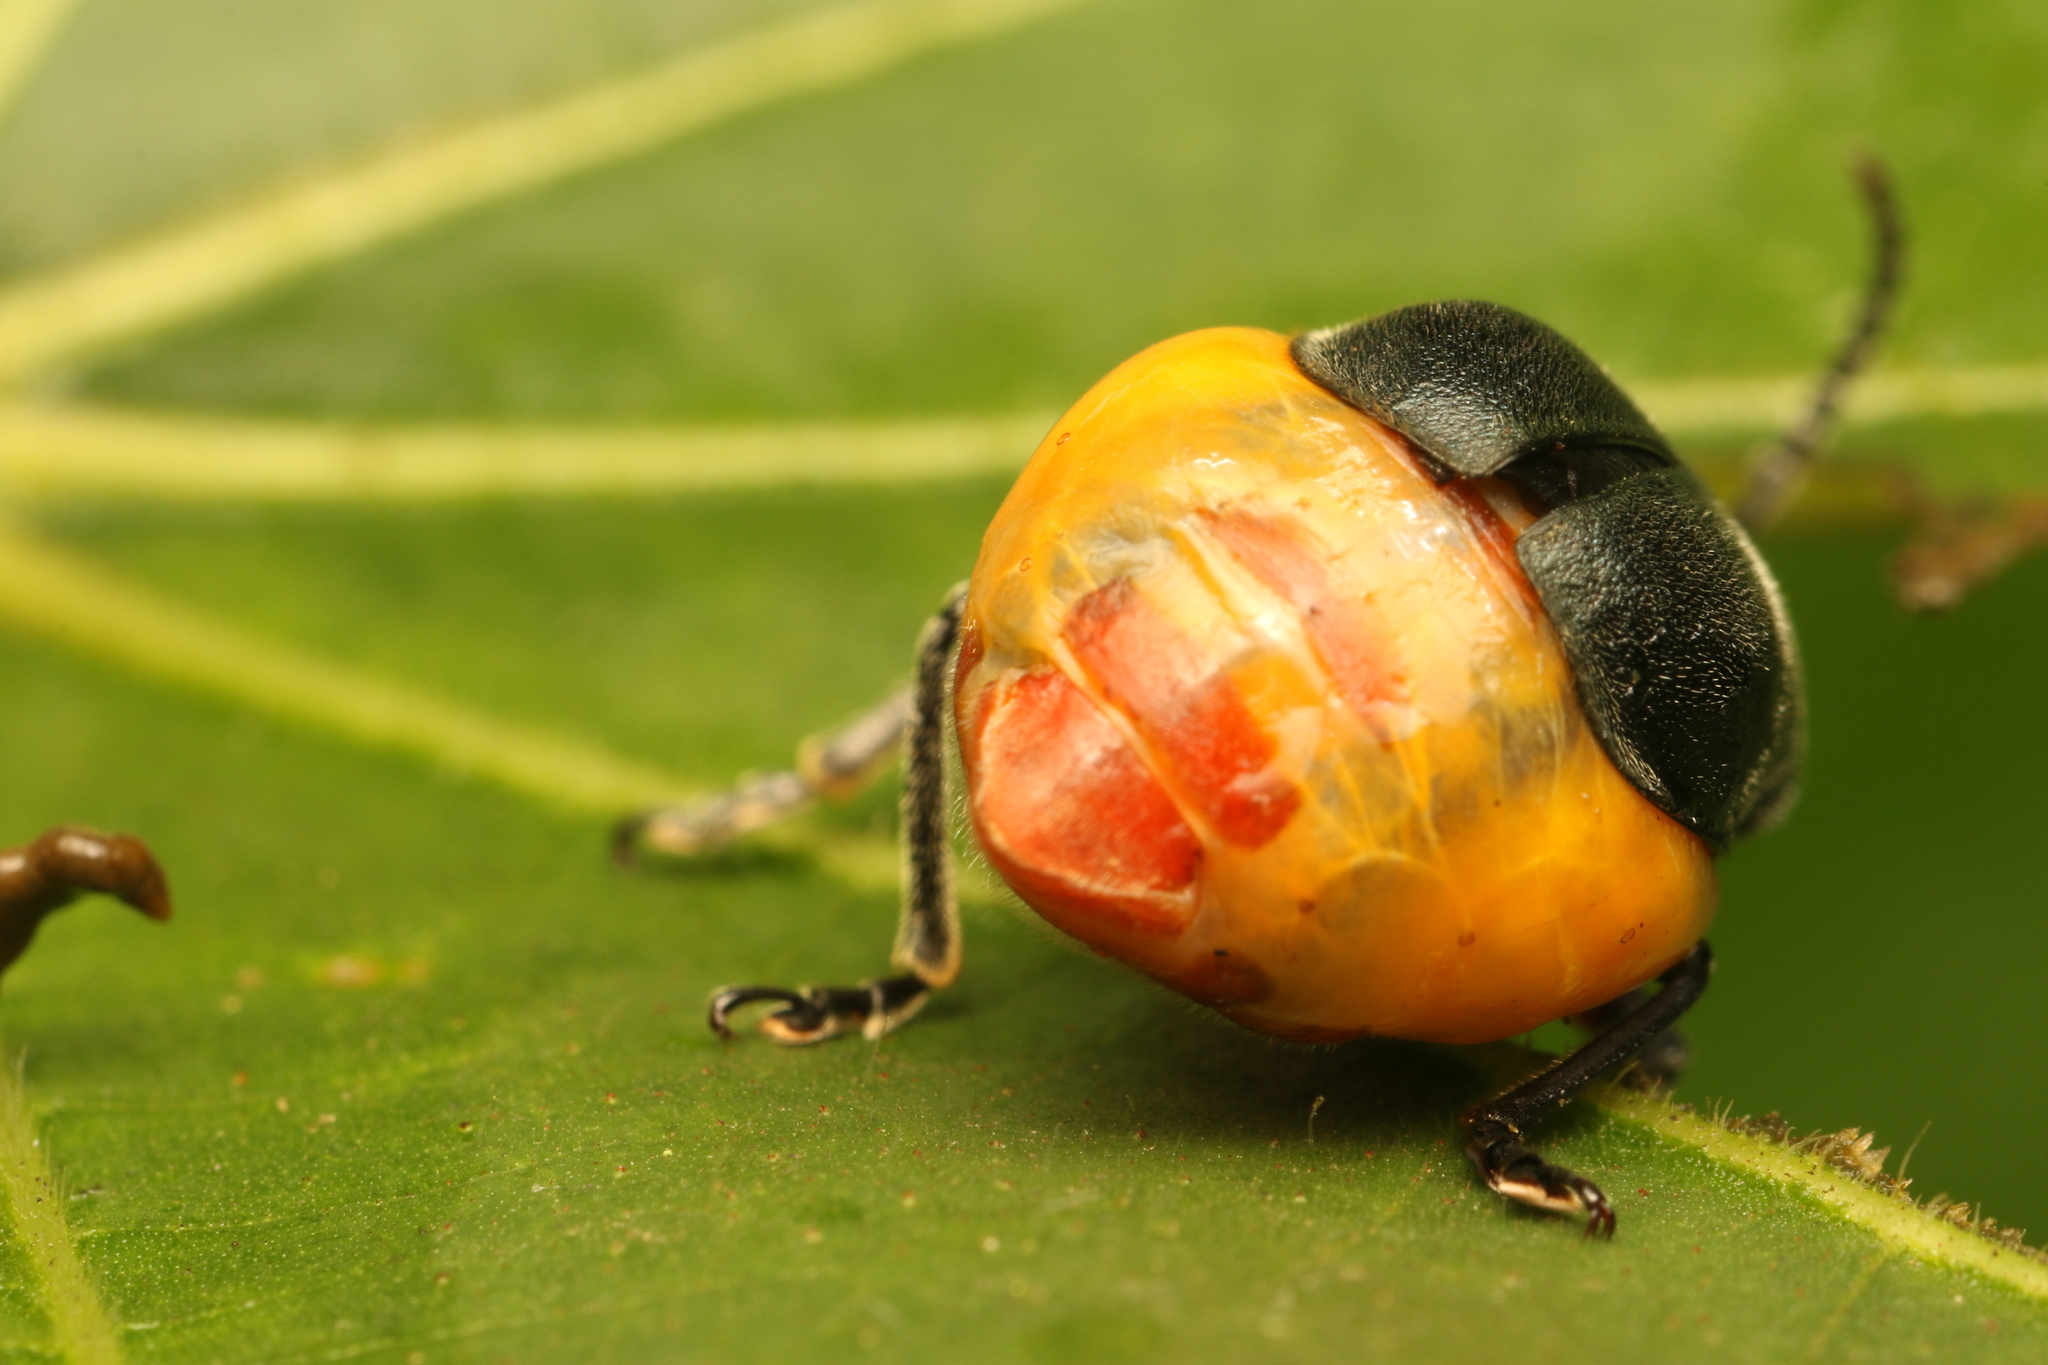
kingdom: Animalia
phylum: Arthropoda
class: Insecta
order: Coleoptera
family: Chrysomelidae
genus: Coelomera
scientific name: Coelomera
